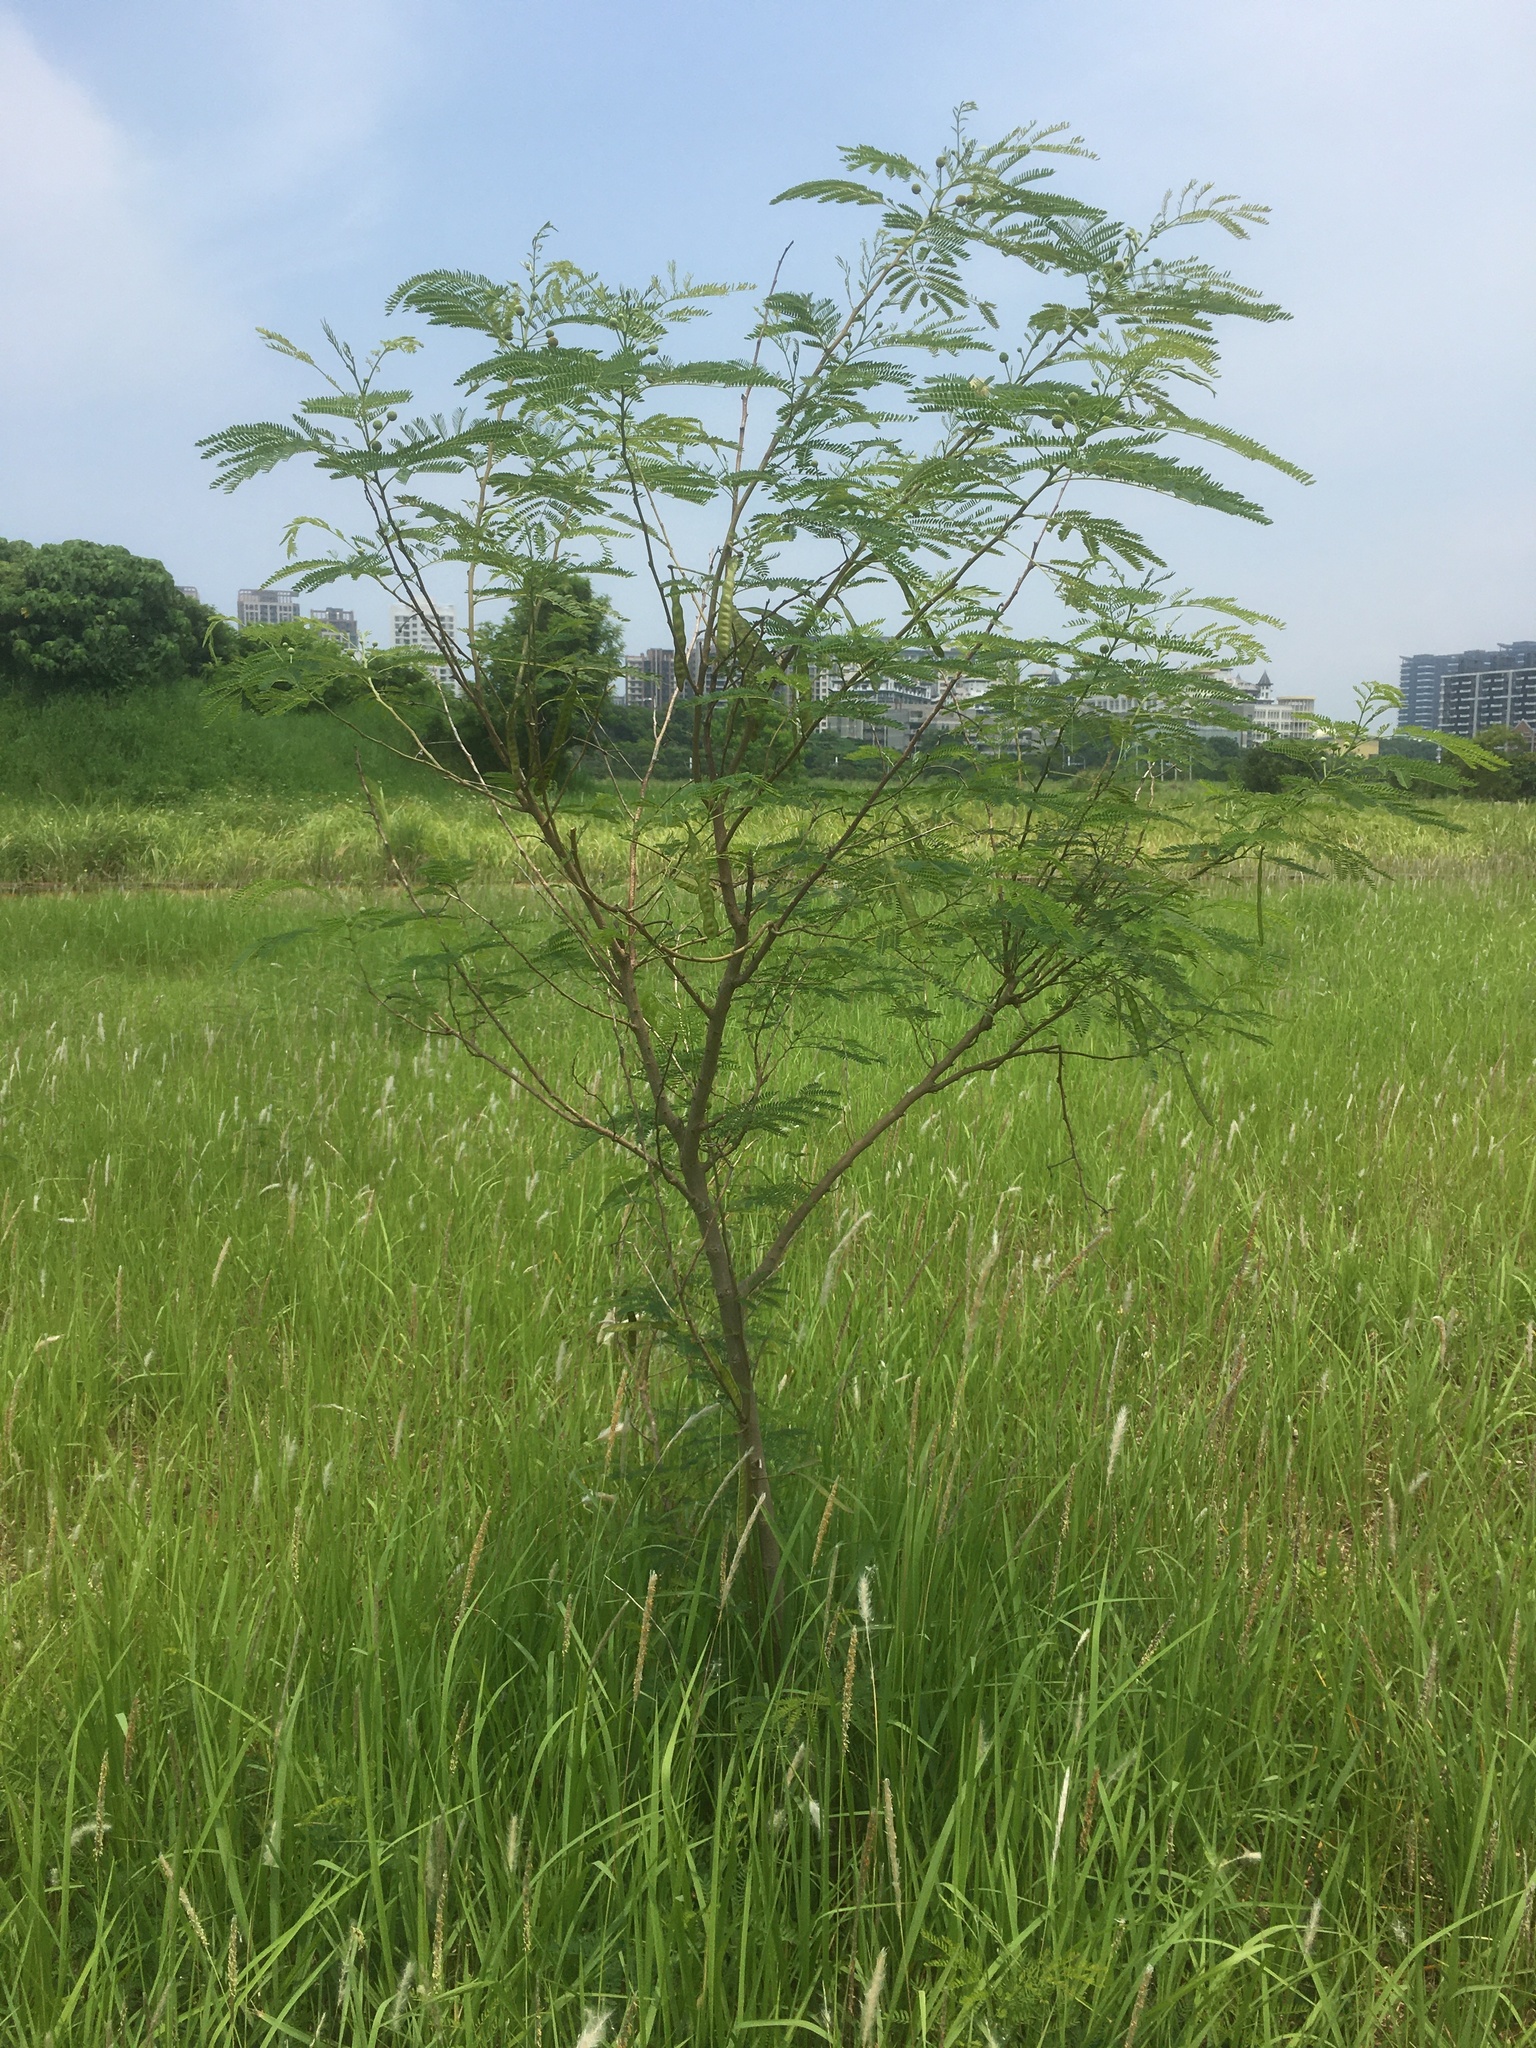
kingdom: Plantae
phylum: Tracheophyta
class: Magnoliopsida
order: Fabales
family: Fabaceae
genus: Leucaena
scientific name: Leucaena leucocephala
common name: White leadtree
